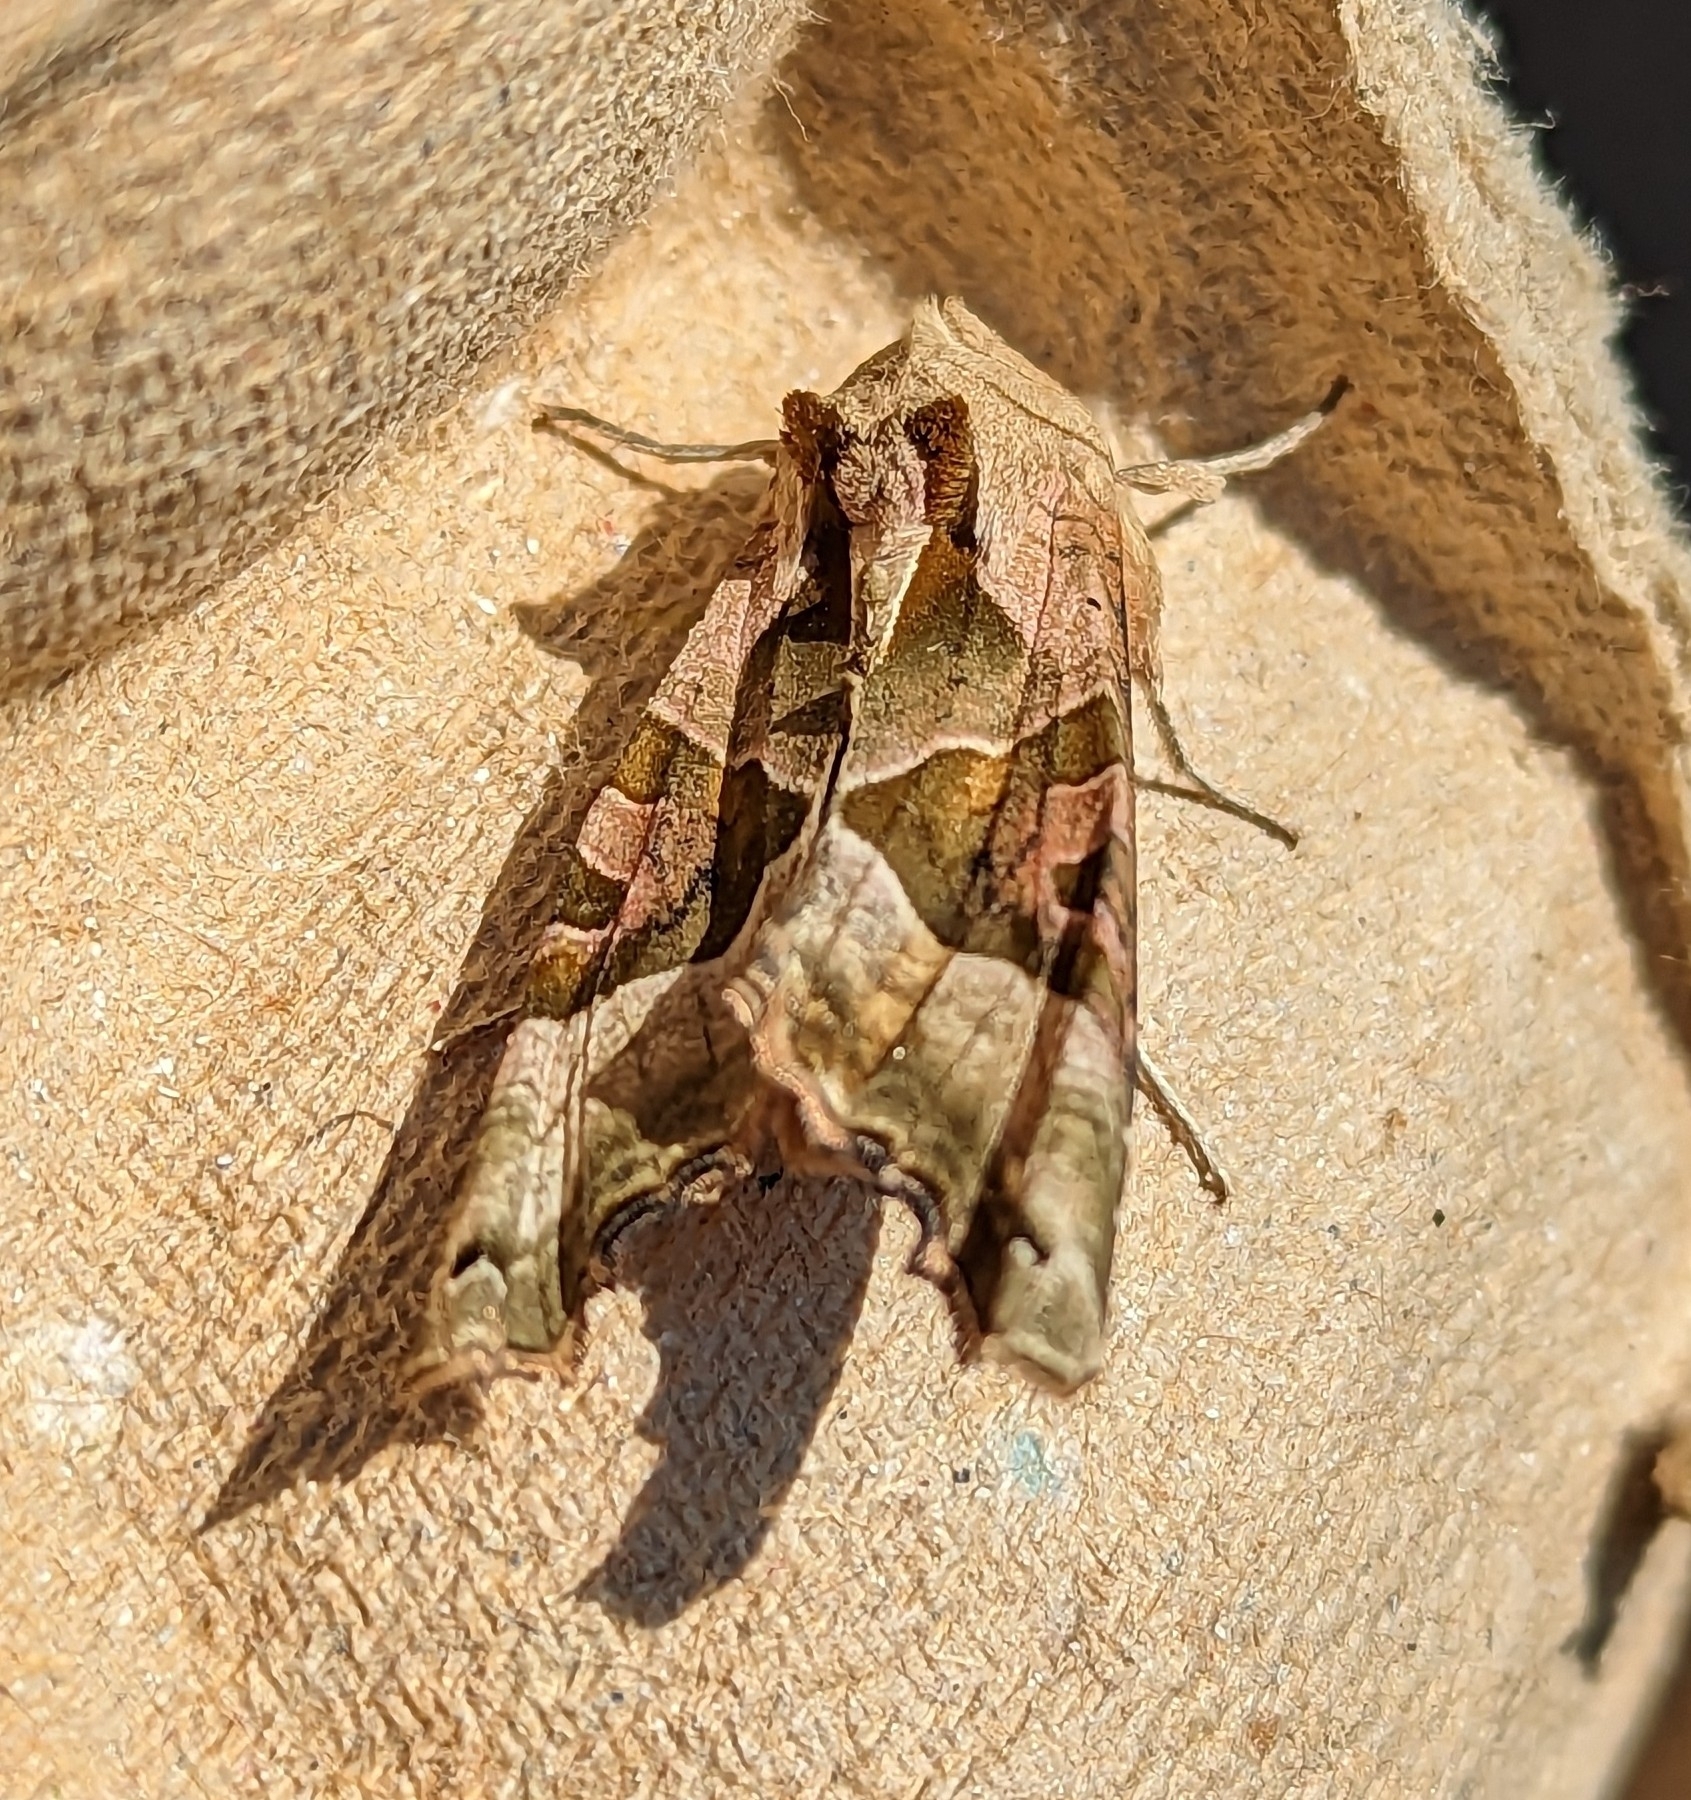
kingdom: Animalia
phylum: Arthropoda
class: Insecta
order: Lepidoptera
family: Noctuidae
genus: Phlogophora
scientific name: Phlogophora meticulosa
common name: Angle shades
